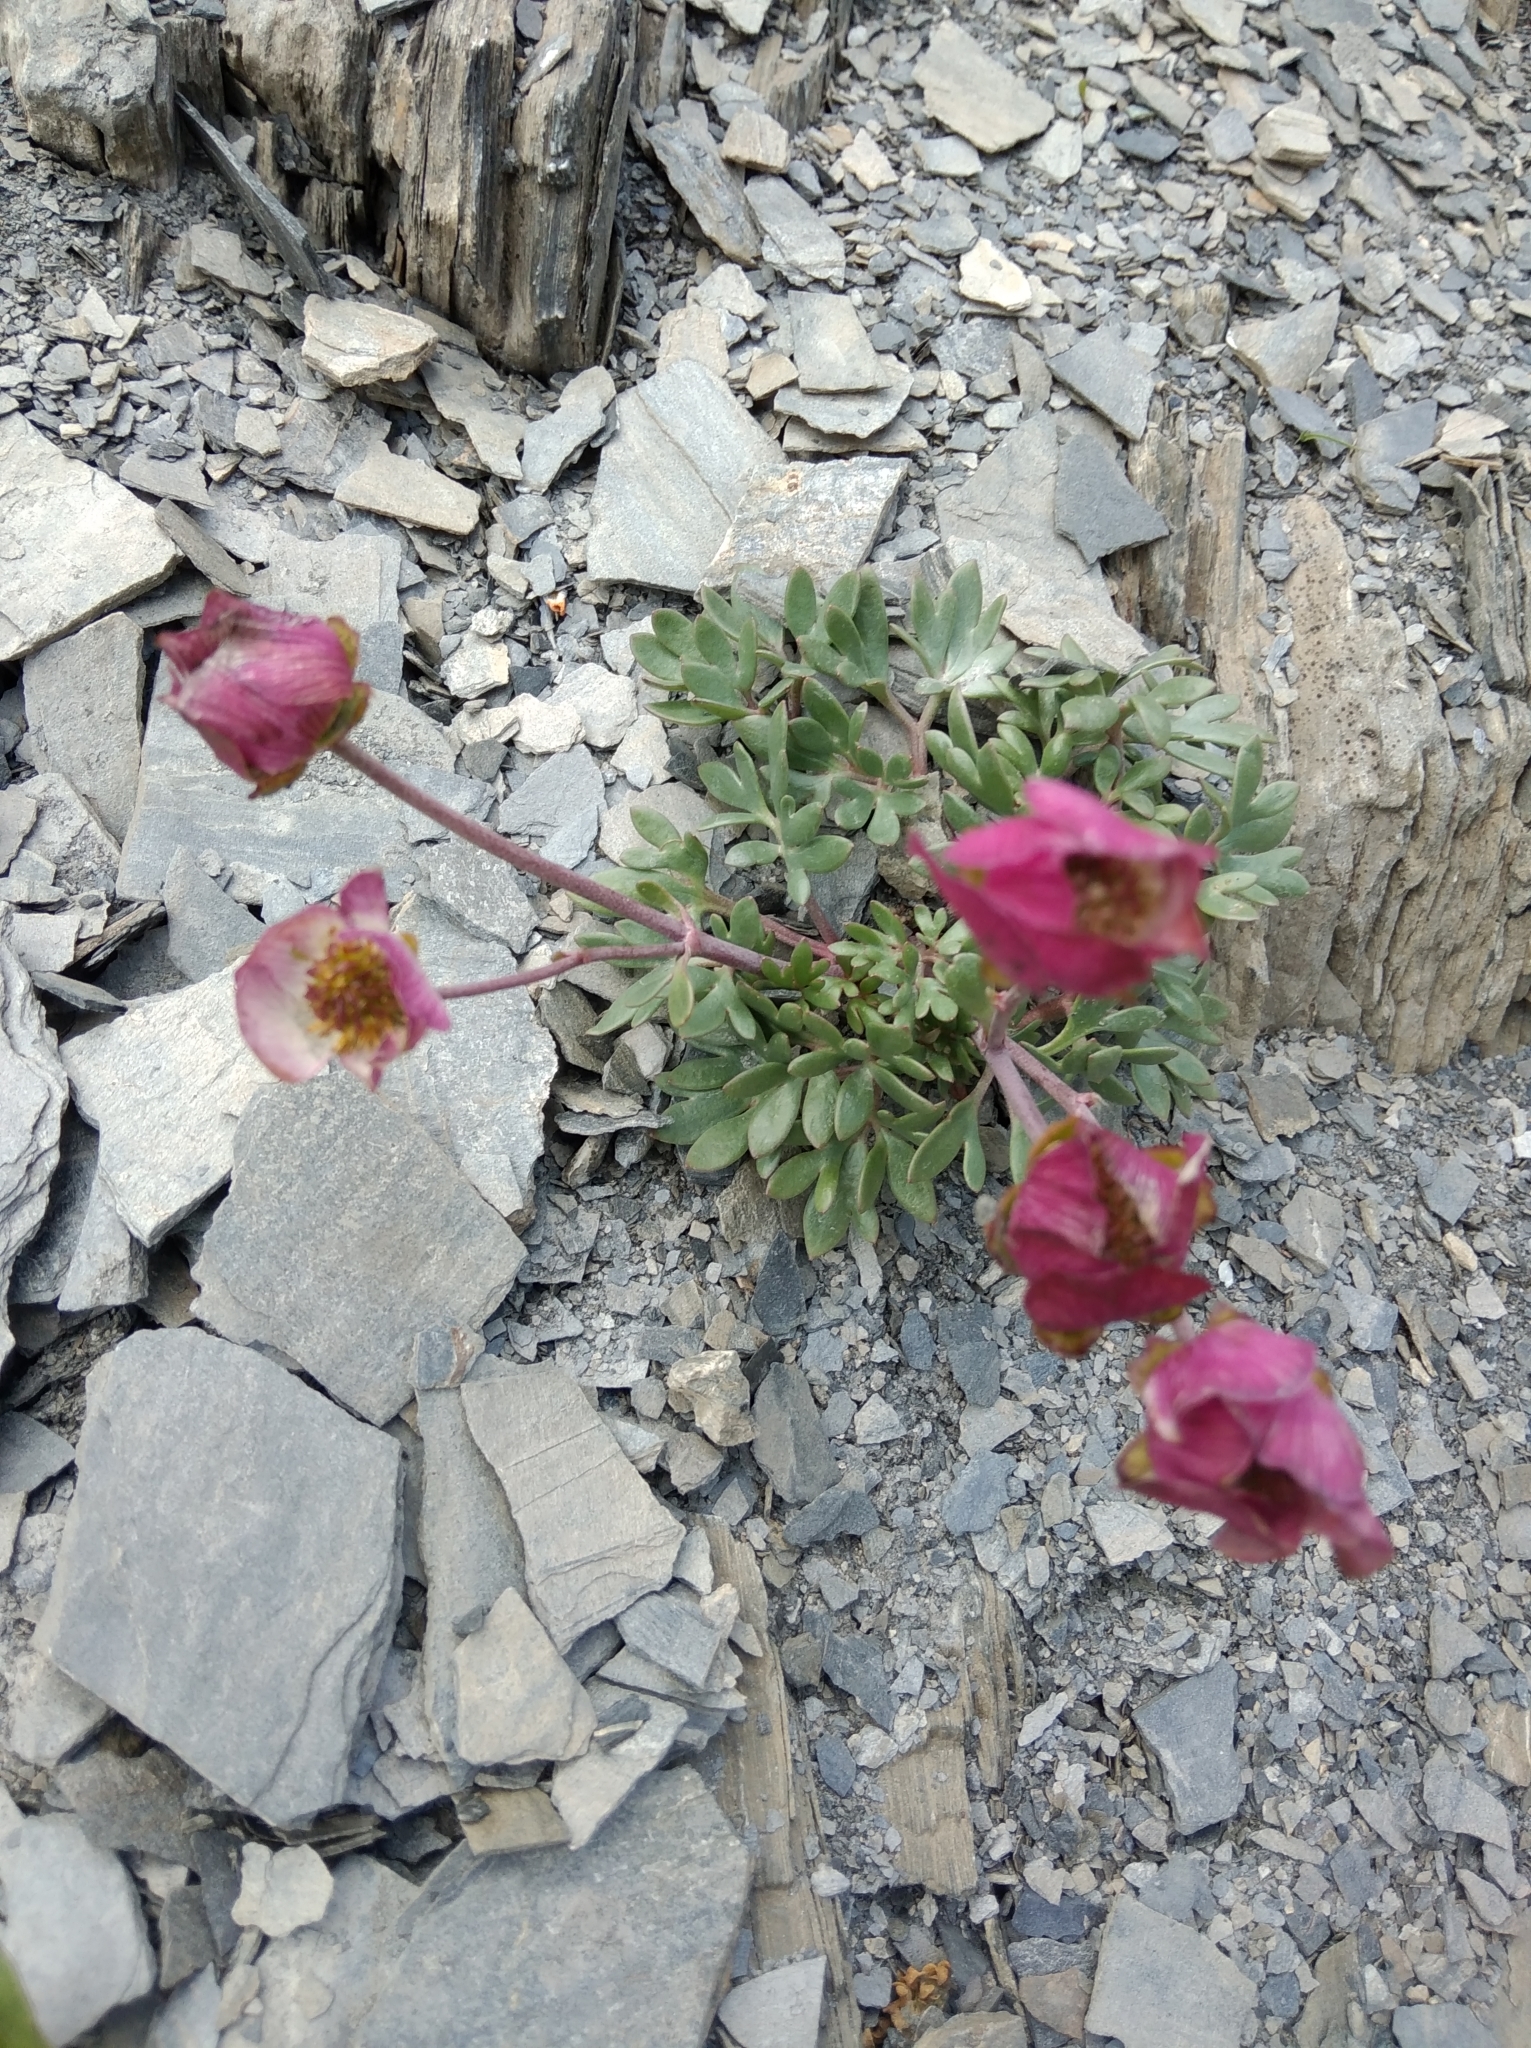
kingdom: Plantae
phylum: Tracheophyta
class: Magnoliopsida
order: Ranunculales
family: Ranunculaceae
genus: Ranunculus
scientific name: Ranunculus glacialis
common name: Glacier buttercup
